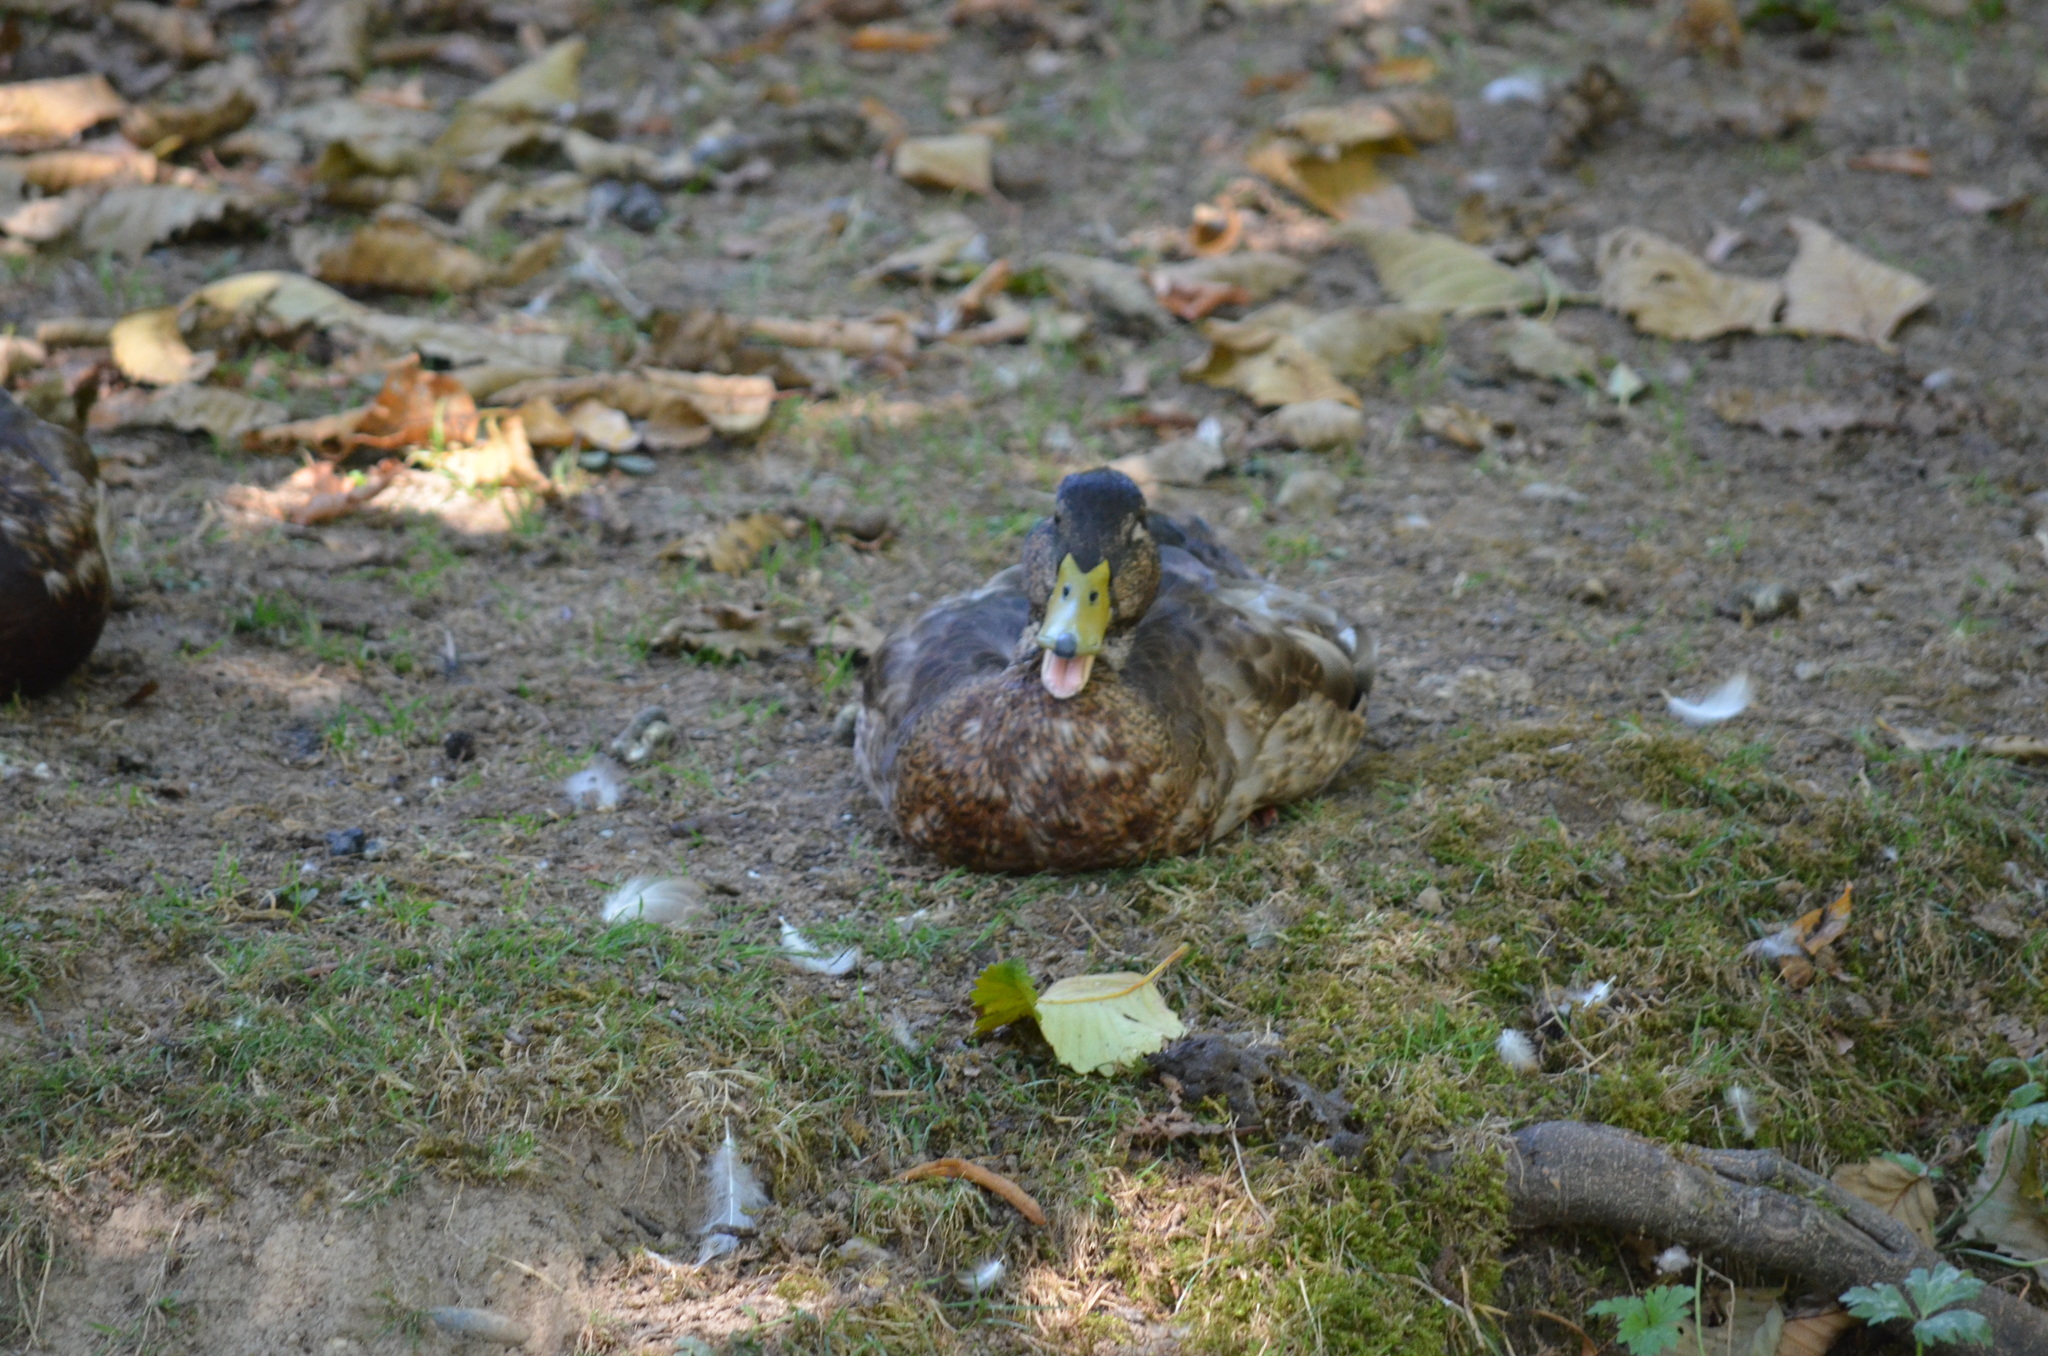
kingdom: Animalia
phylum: Chordata
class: Aves
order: Anseriformes
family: Anatidae
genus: Anas
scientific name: Anas platyrhynchos
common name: Mallard
